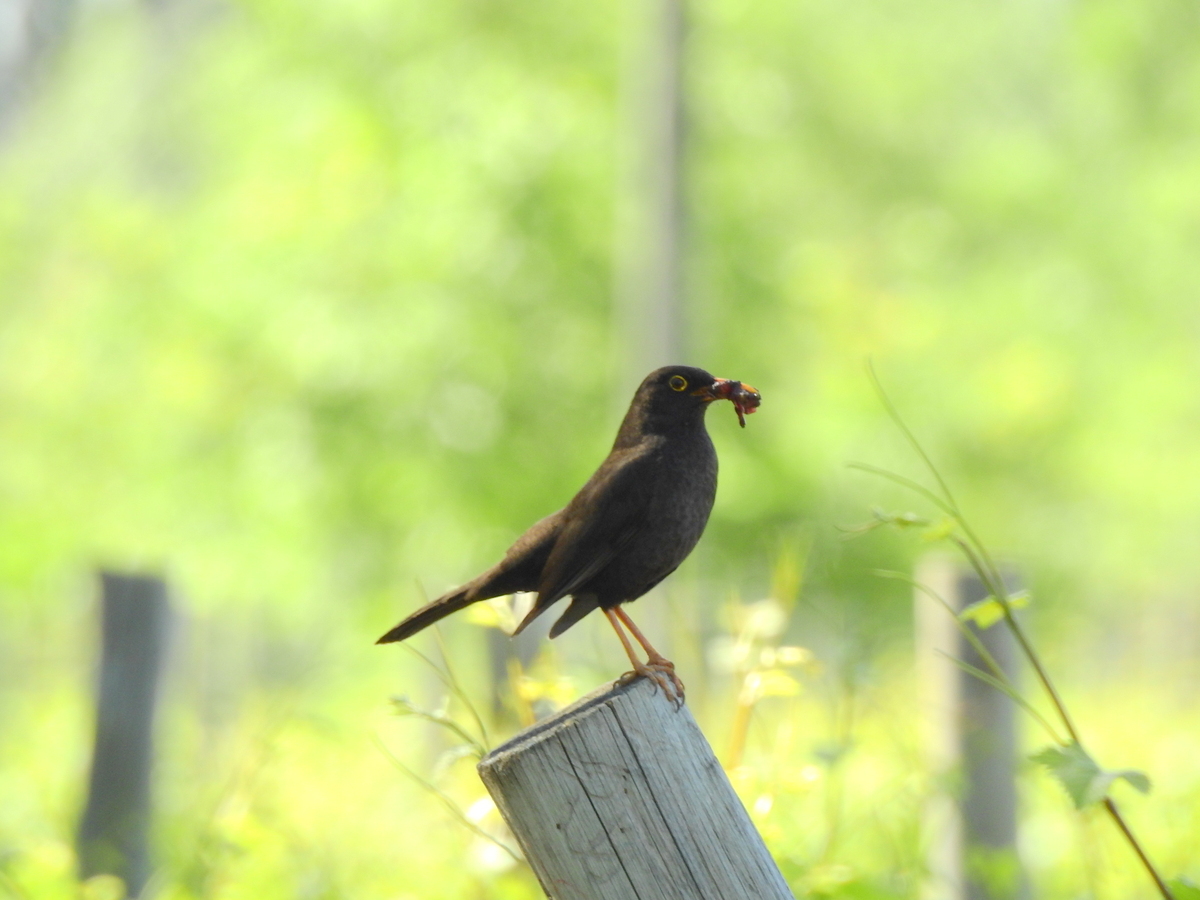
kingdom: Animalia
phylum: Chordata
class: Aves
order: Passeriformes
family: Turdidae
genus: Turdus
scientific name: Turdus chiguanco
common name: Chiguanco thrush
